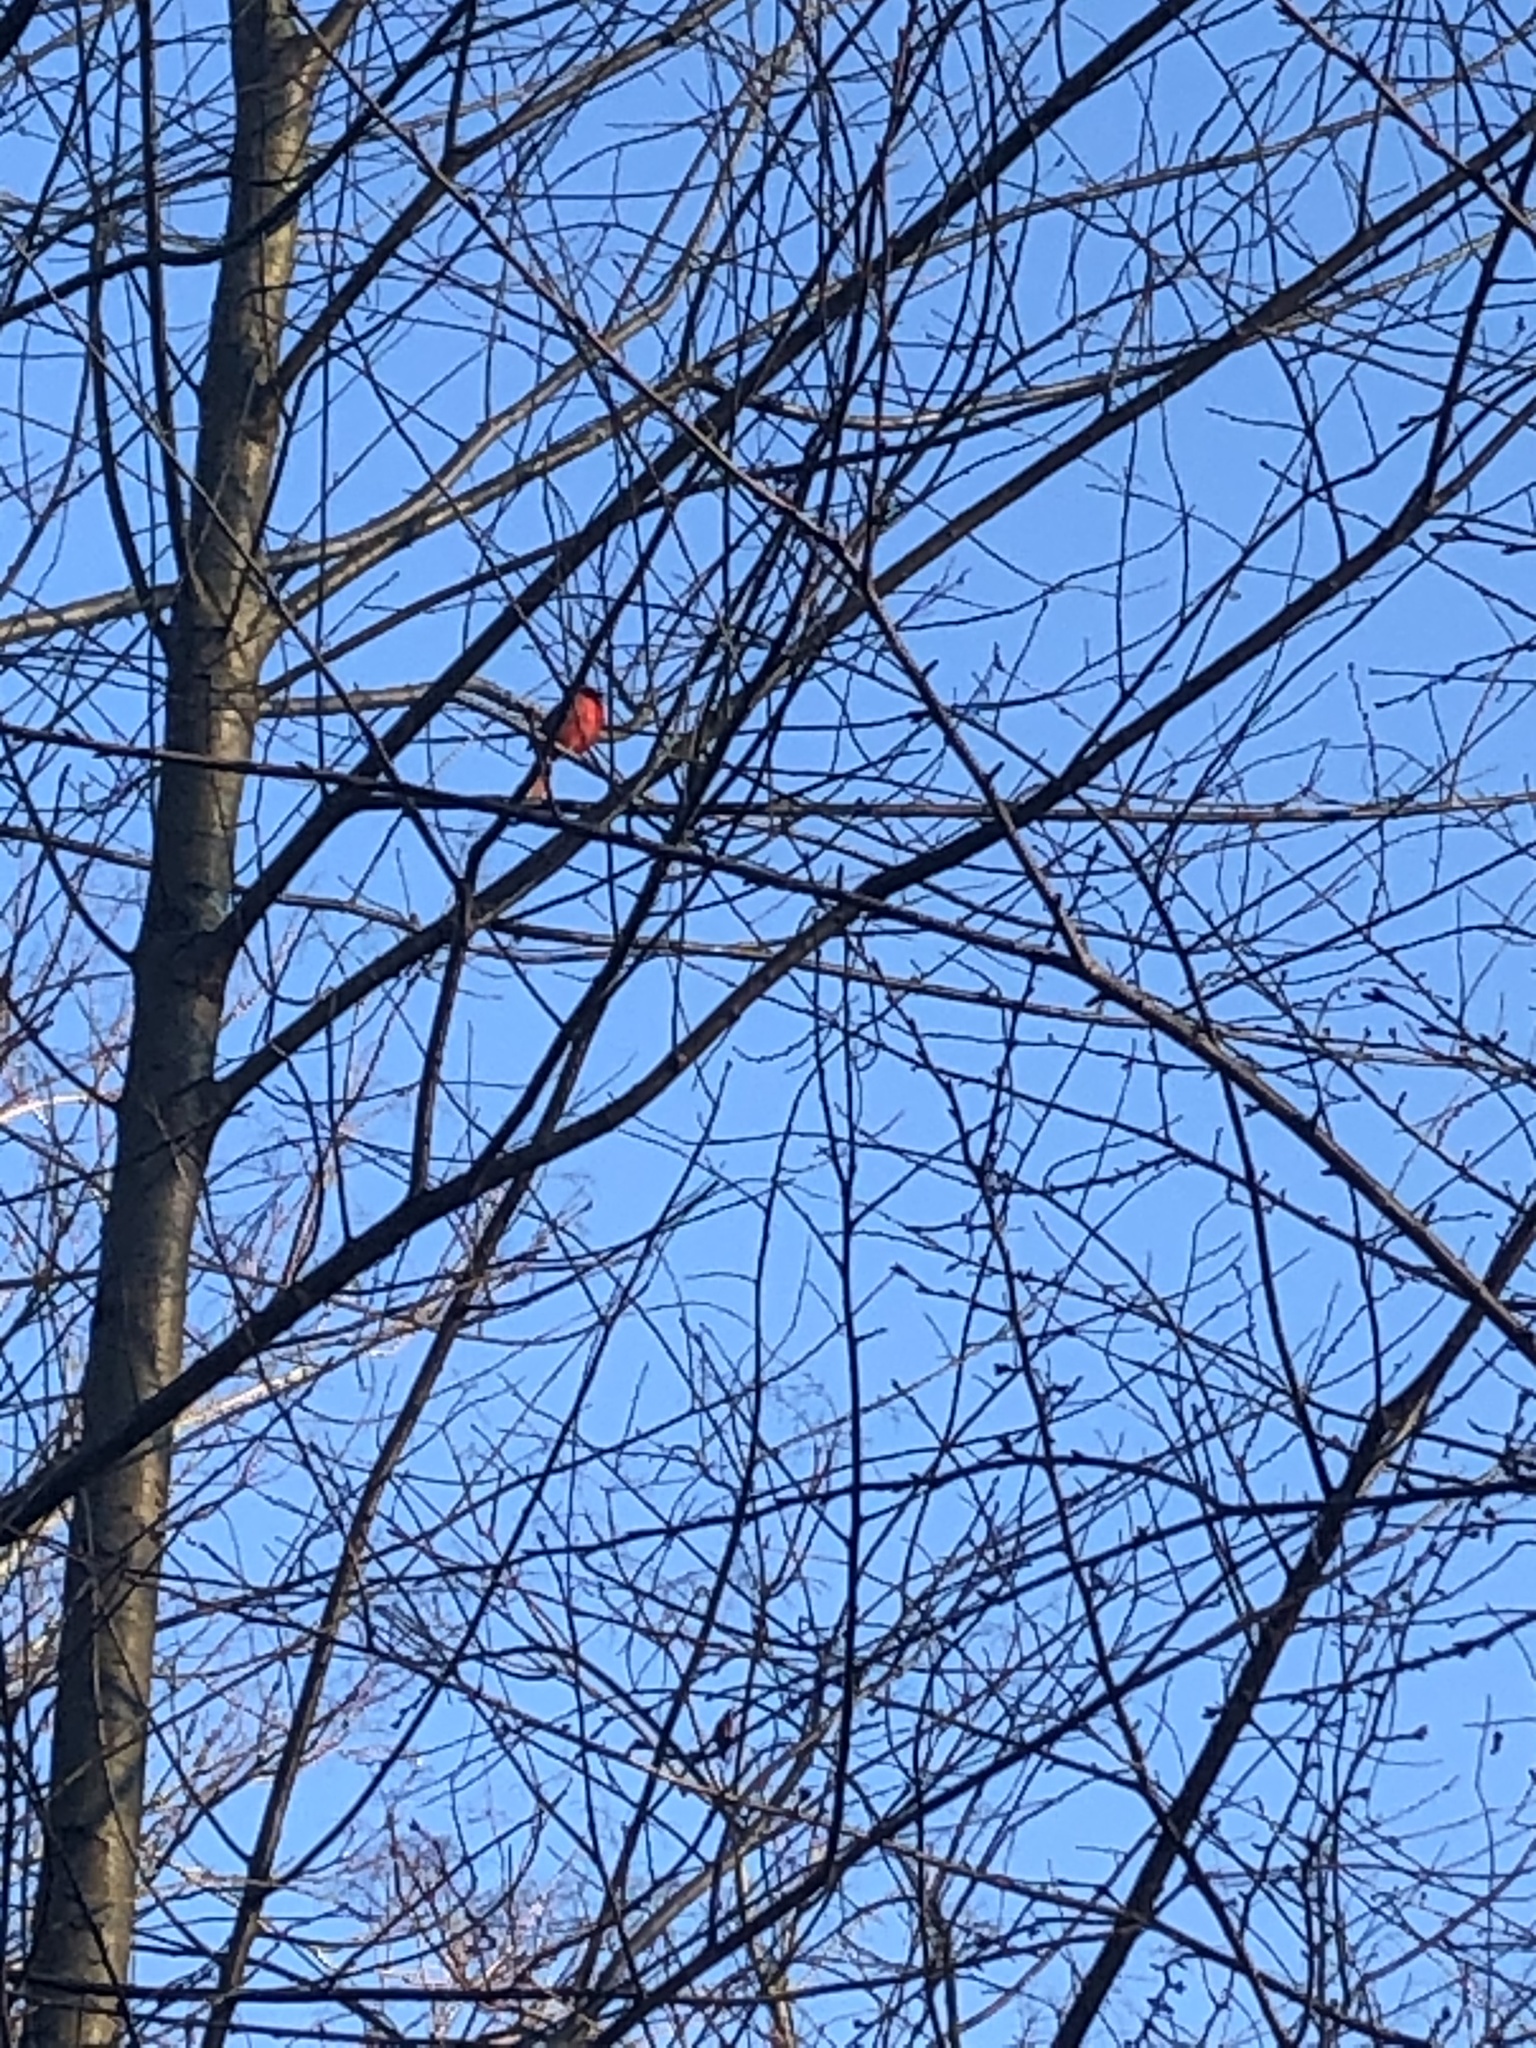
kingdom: Animalia
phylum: Chordata
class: Aves
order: Passeriformes
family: Cardinalidae
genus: Cardinalis
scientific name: Cardinalis cardinalis
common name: Northern cardinal
